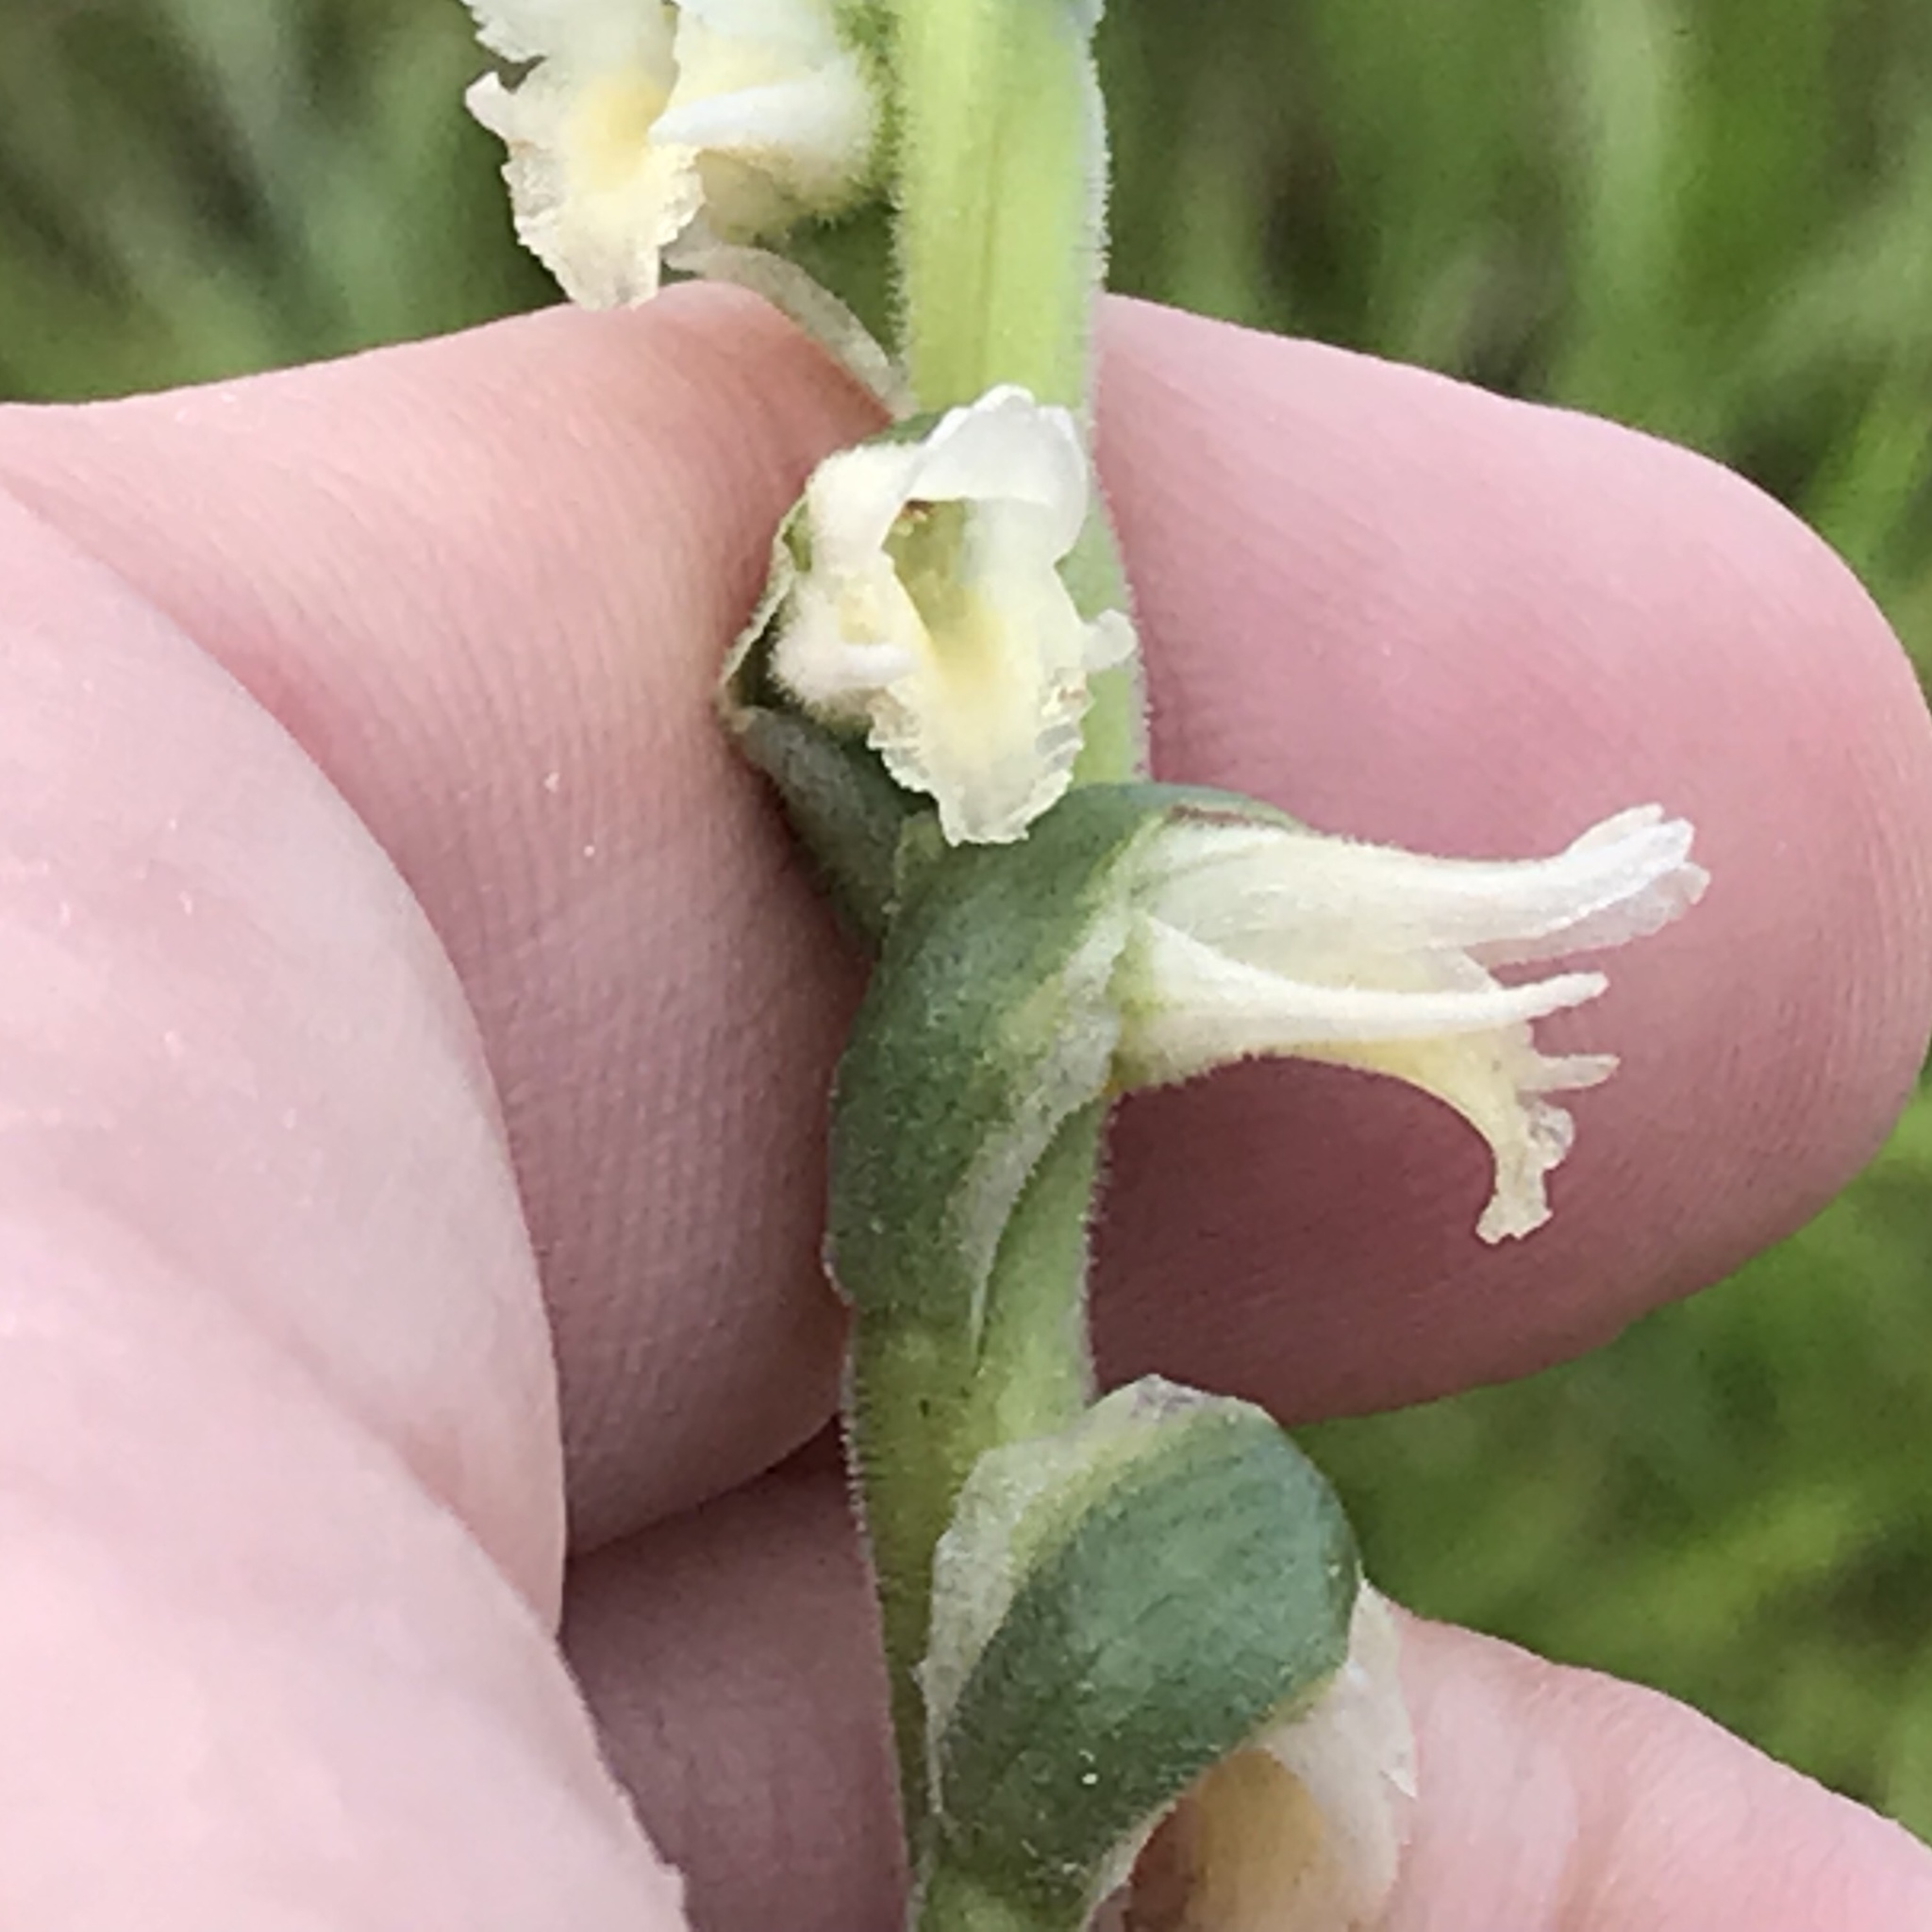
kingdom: Plantae
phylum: Tracheophyta
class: Liliopsida
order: Asparagales
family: Orchidaceae
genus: Spiranthes
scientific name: Spiranthes vernalis
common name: Spring ladies'-tresses
